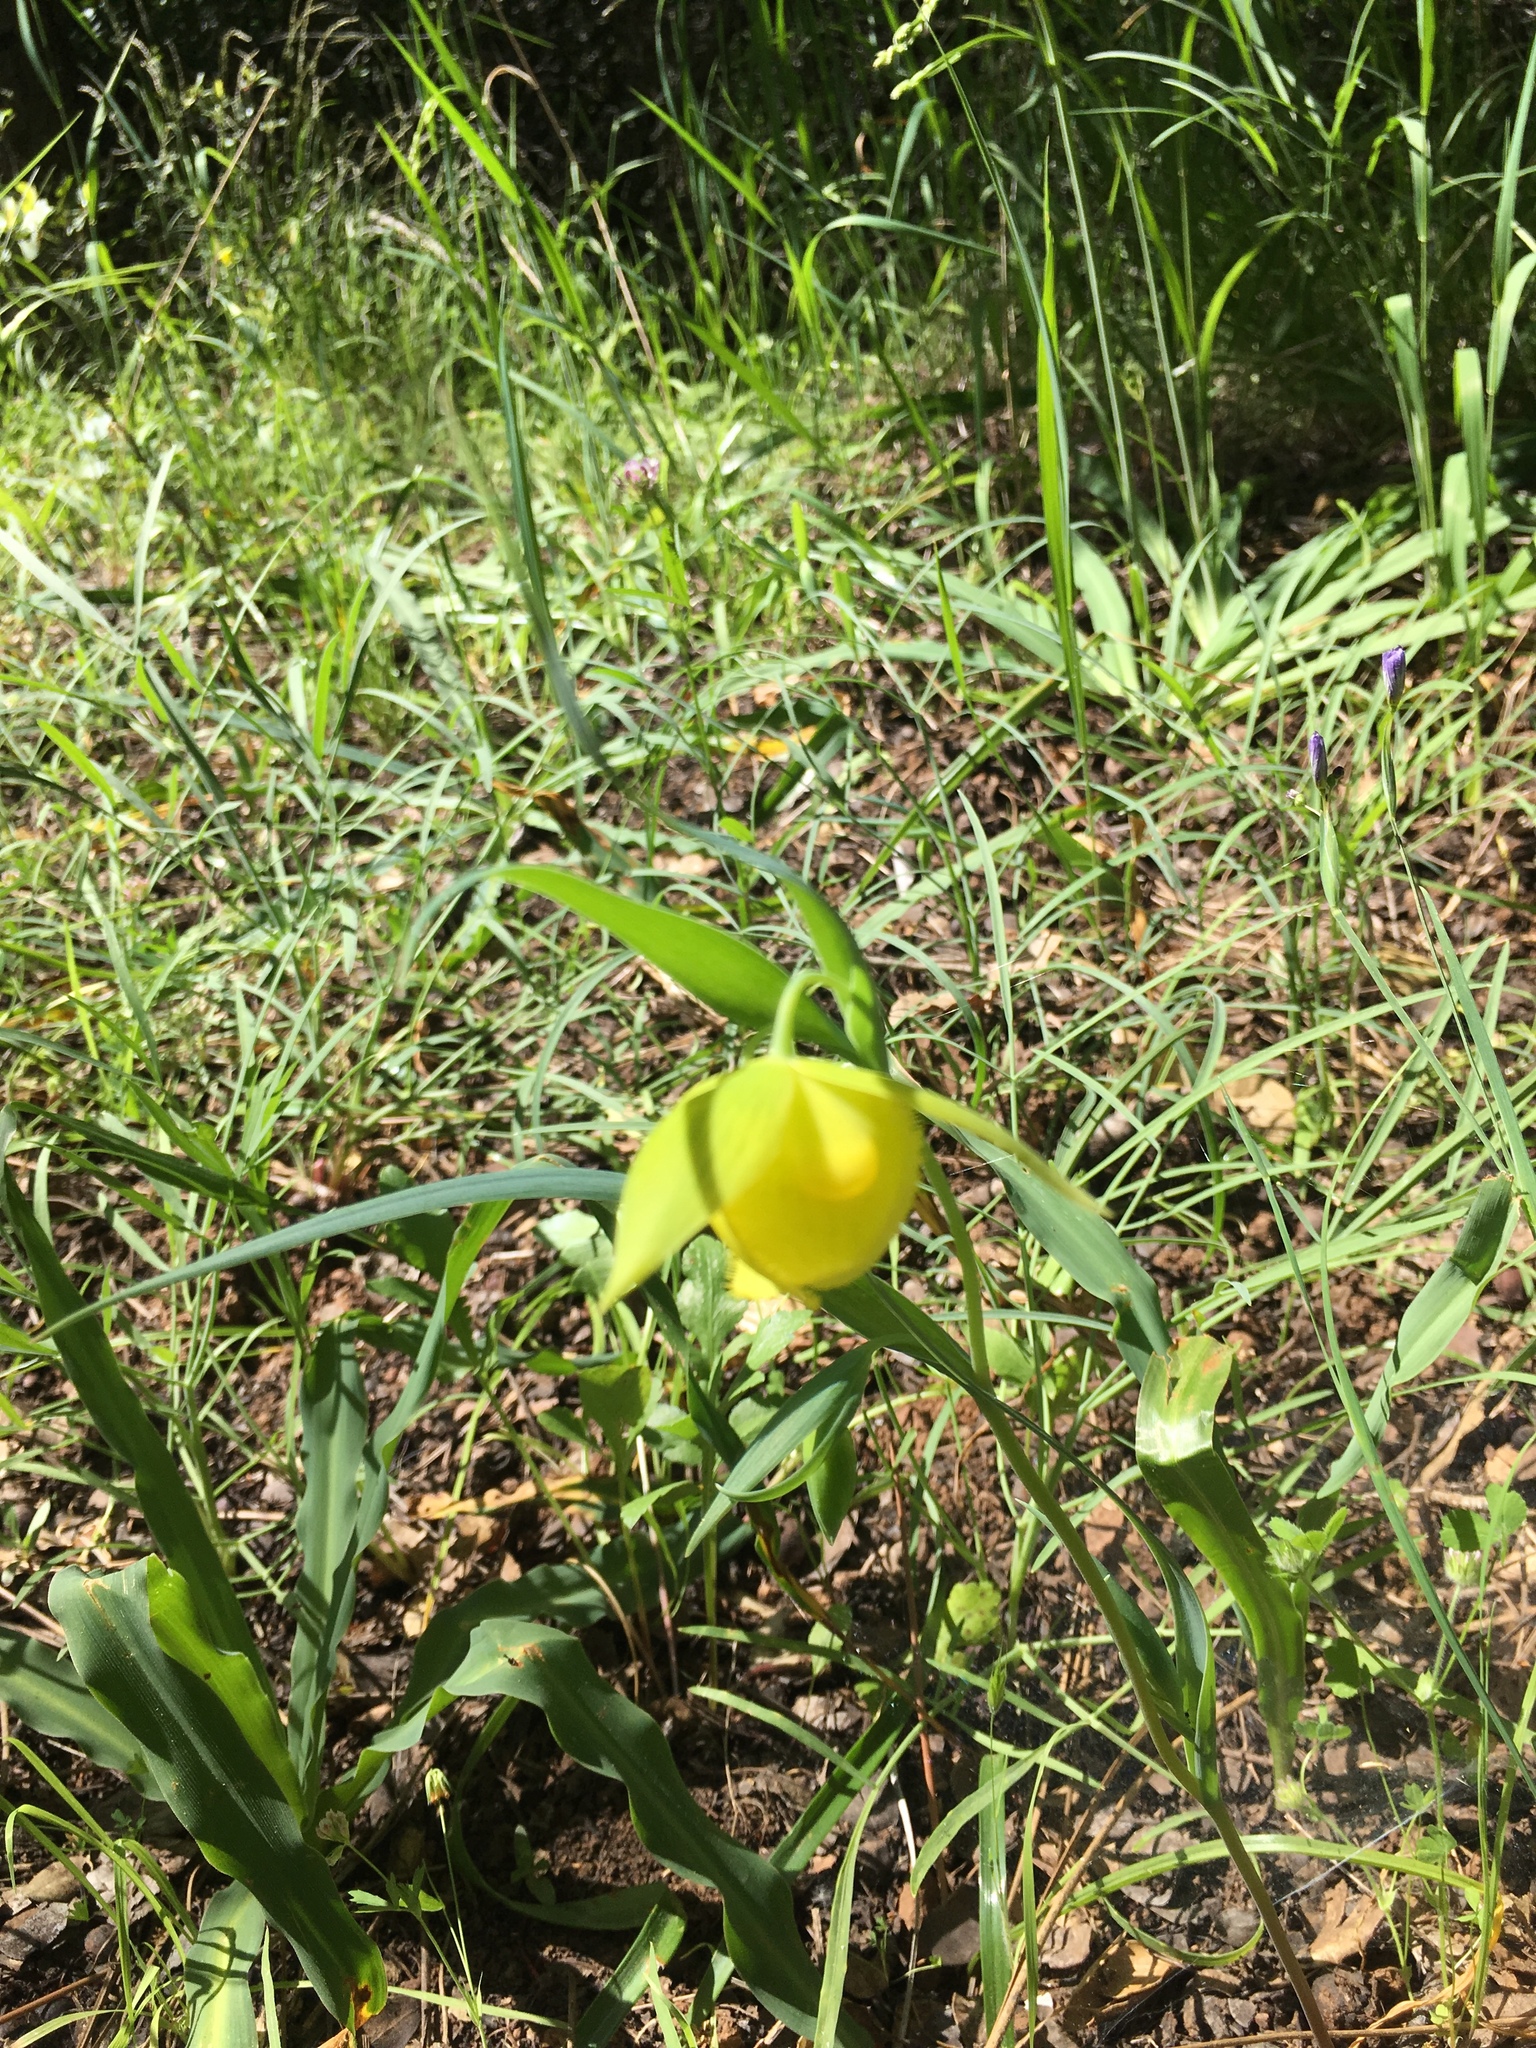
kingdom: Plantae
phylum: Tracheophyta
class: Liliopsida
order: Liliales
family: Liliaceae
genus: Calochortus
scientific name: Calochortus pulchellus
